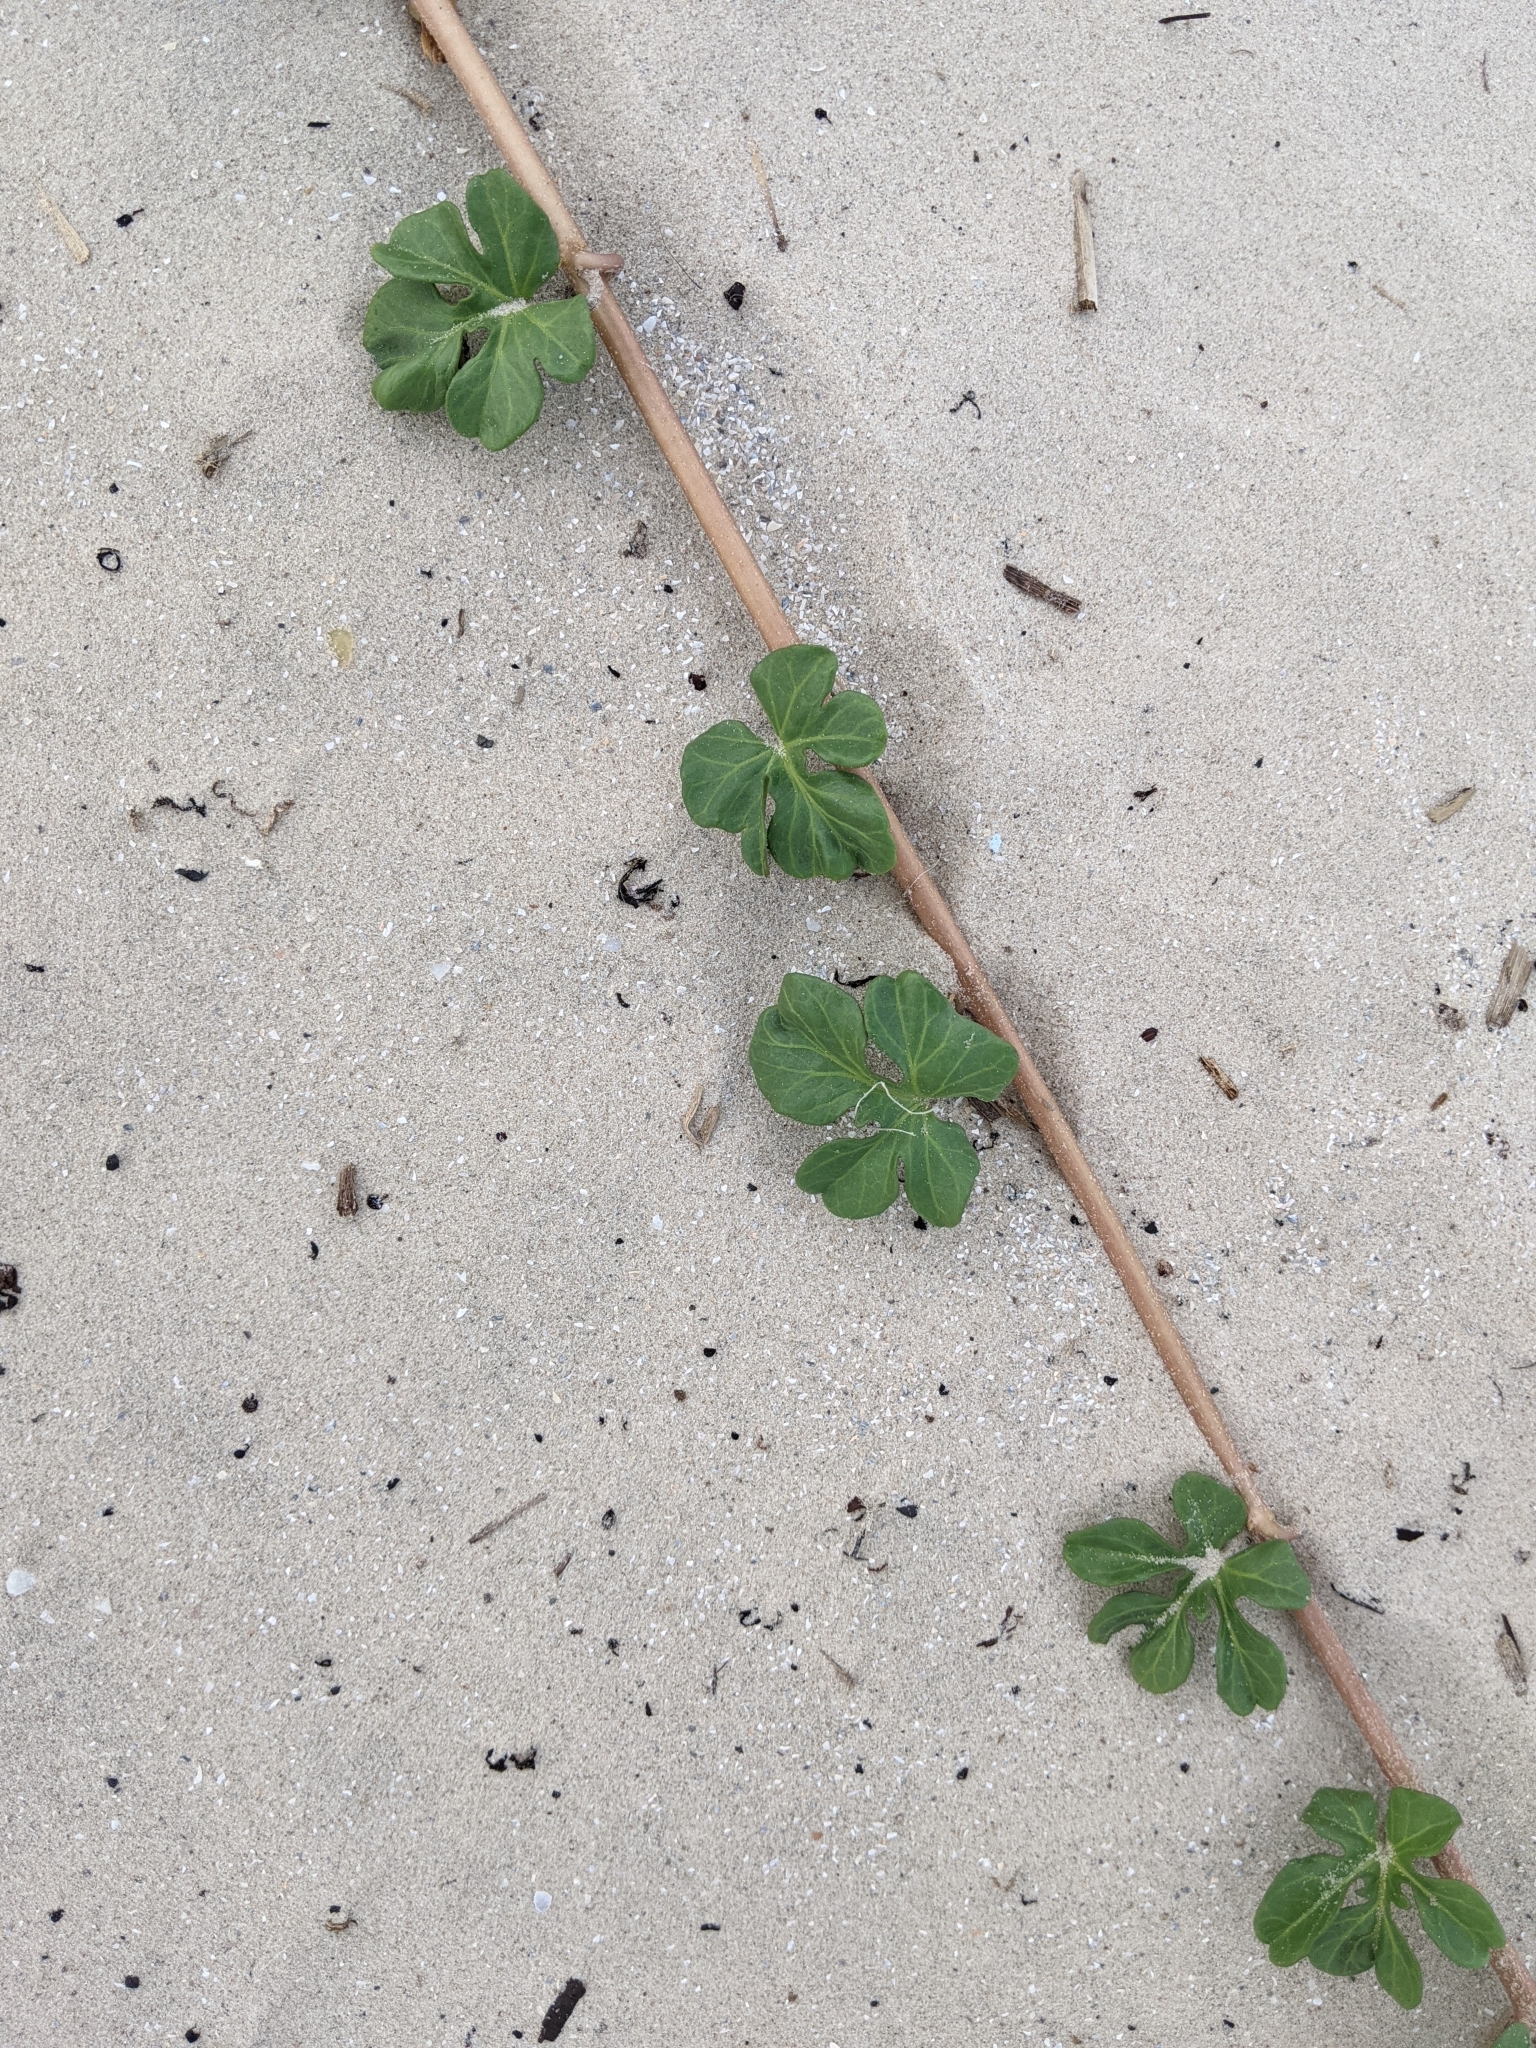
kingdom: Plantae
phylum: Tracheophyta
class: Magnoliopsida
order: Solanales
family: Convolvulaceae
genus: Ipomoea
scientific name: Ipomoea imperati
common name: Fiddle-leaf morning-glory
